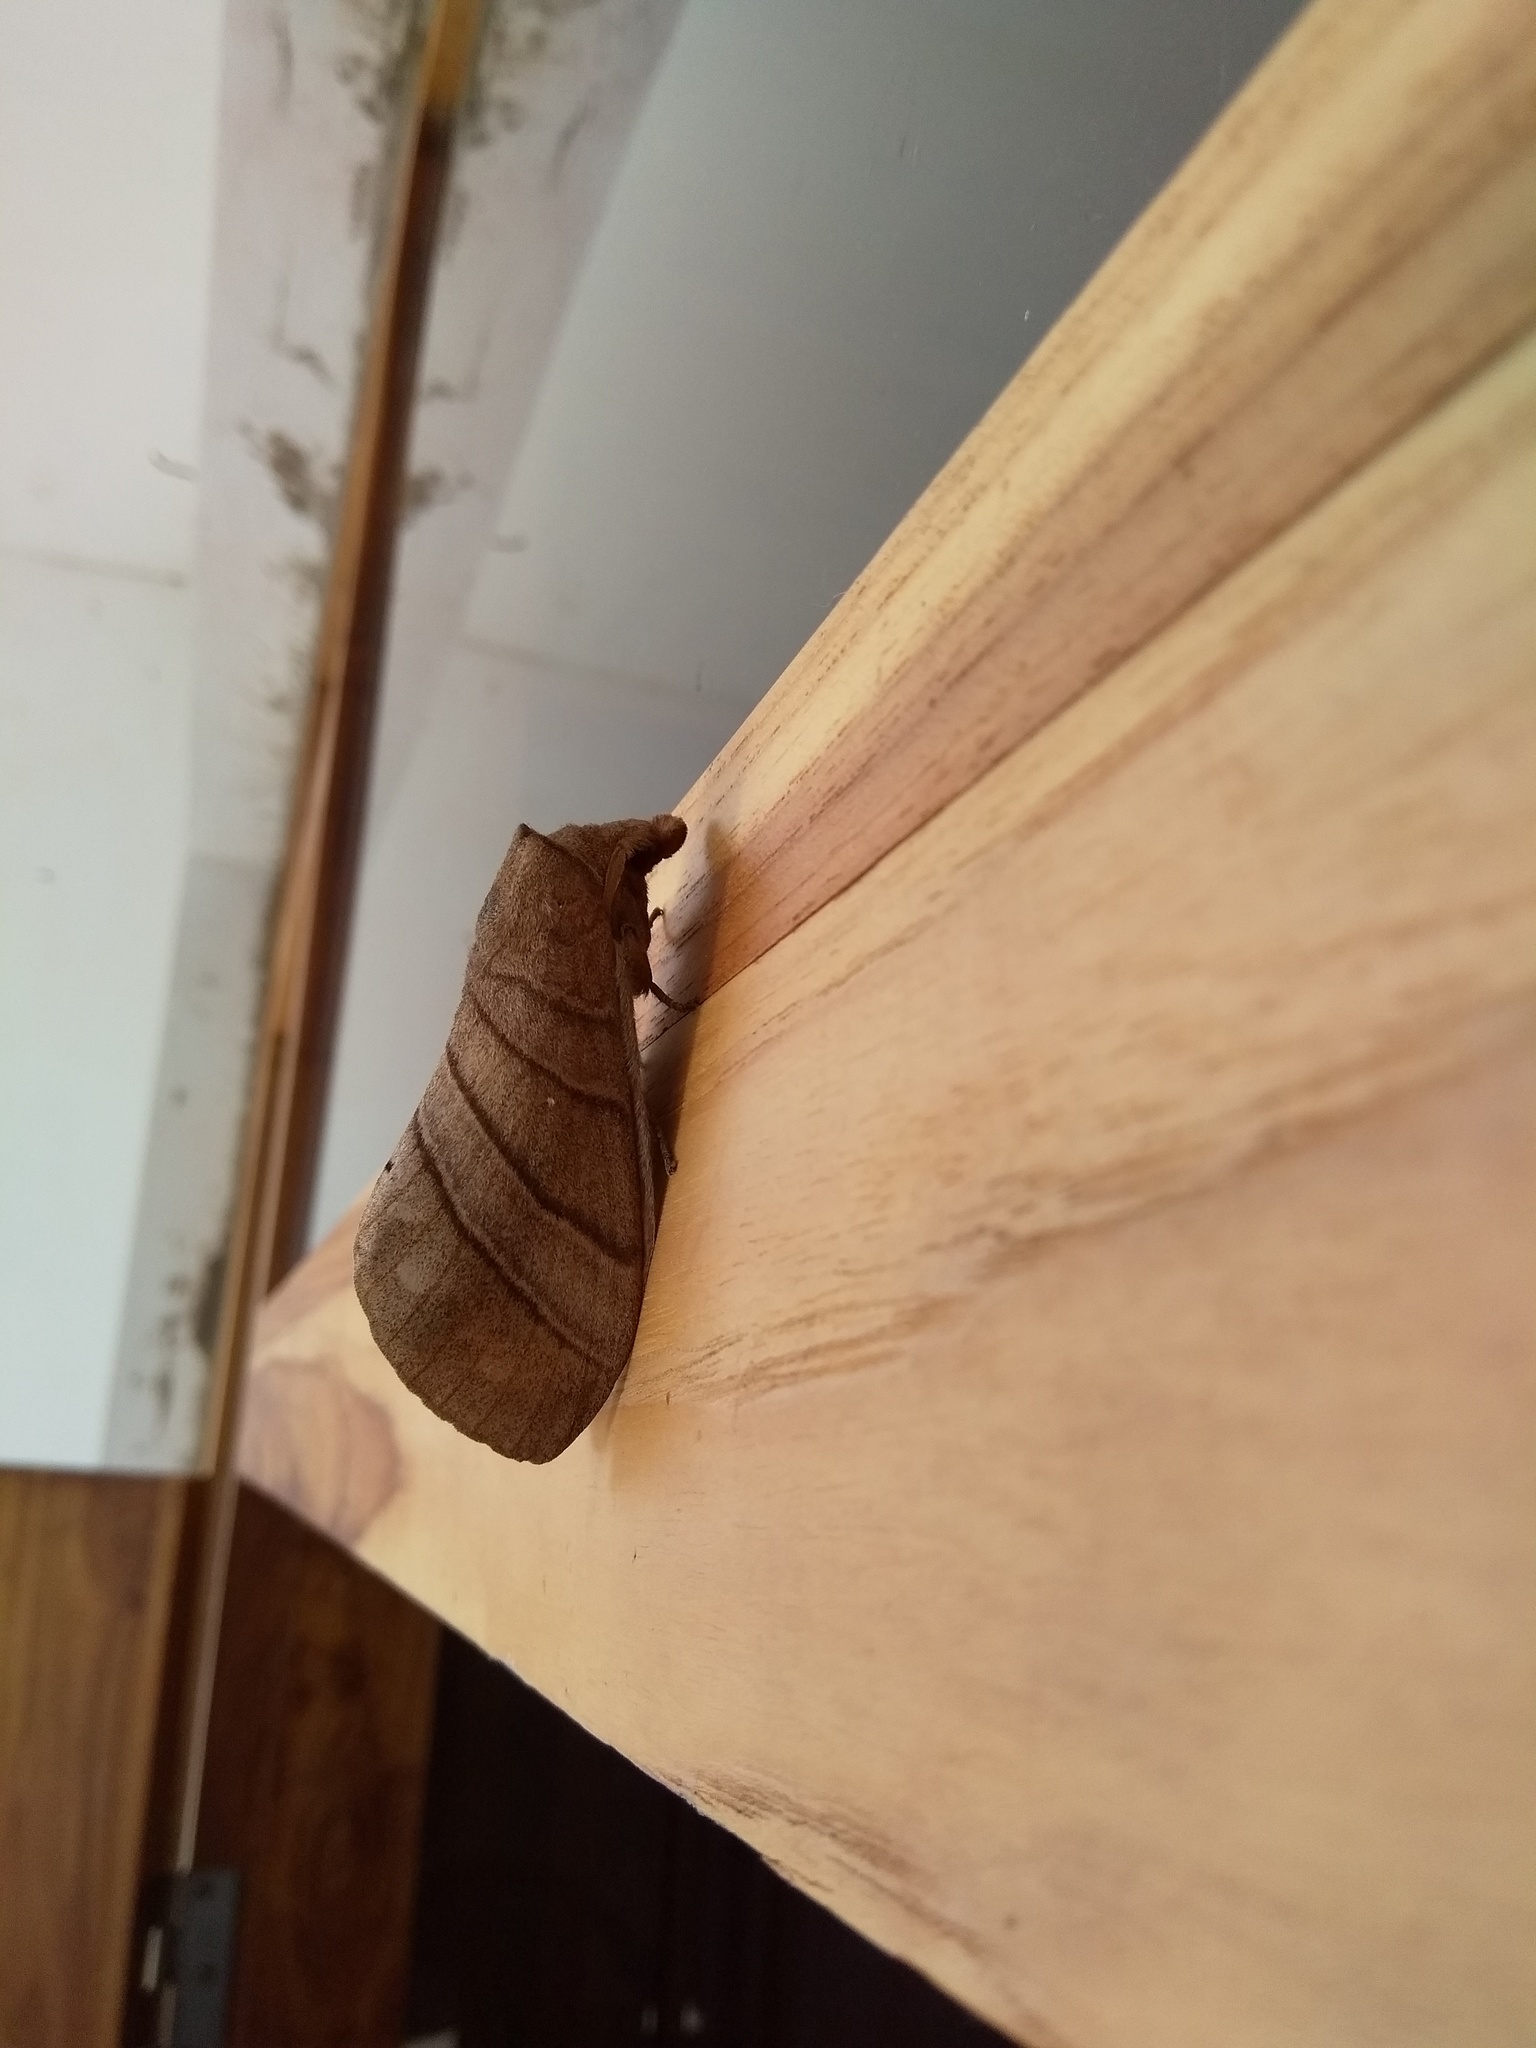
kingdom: Animalia
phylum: Arthropoda
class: Insecta
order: Lepidoptera
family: Lasiocampidae
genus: Lebeda
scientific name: Lebeda trifascia
